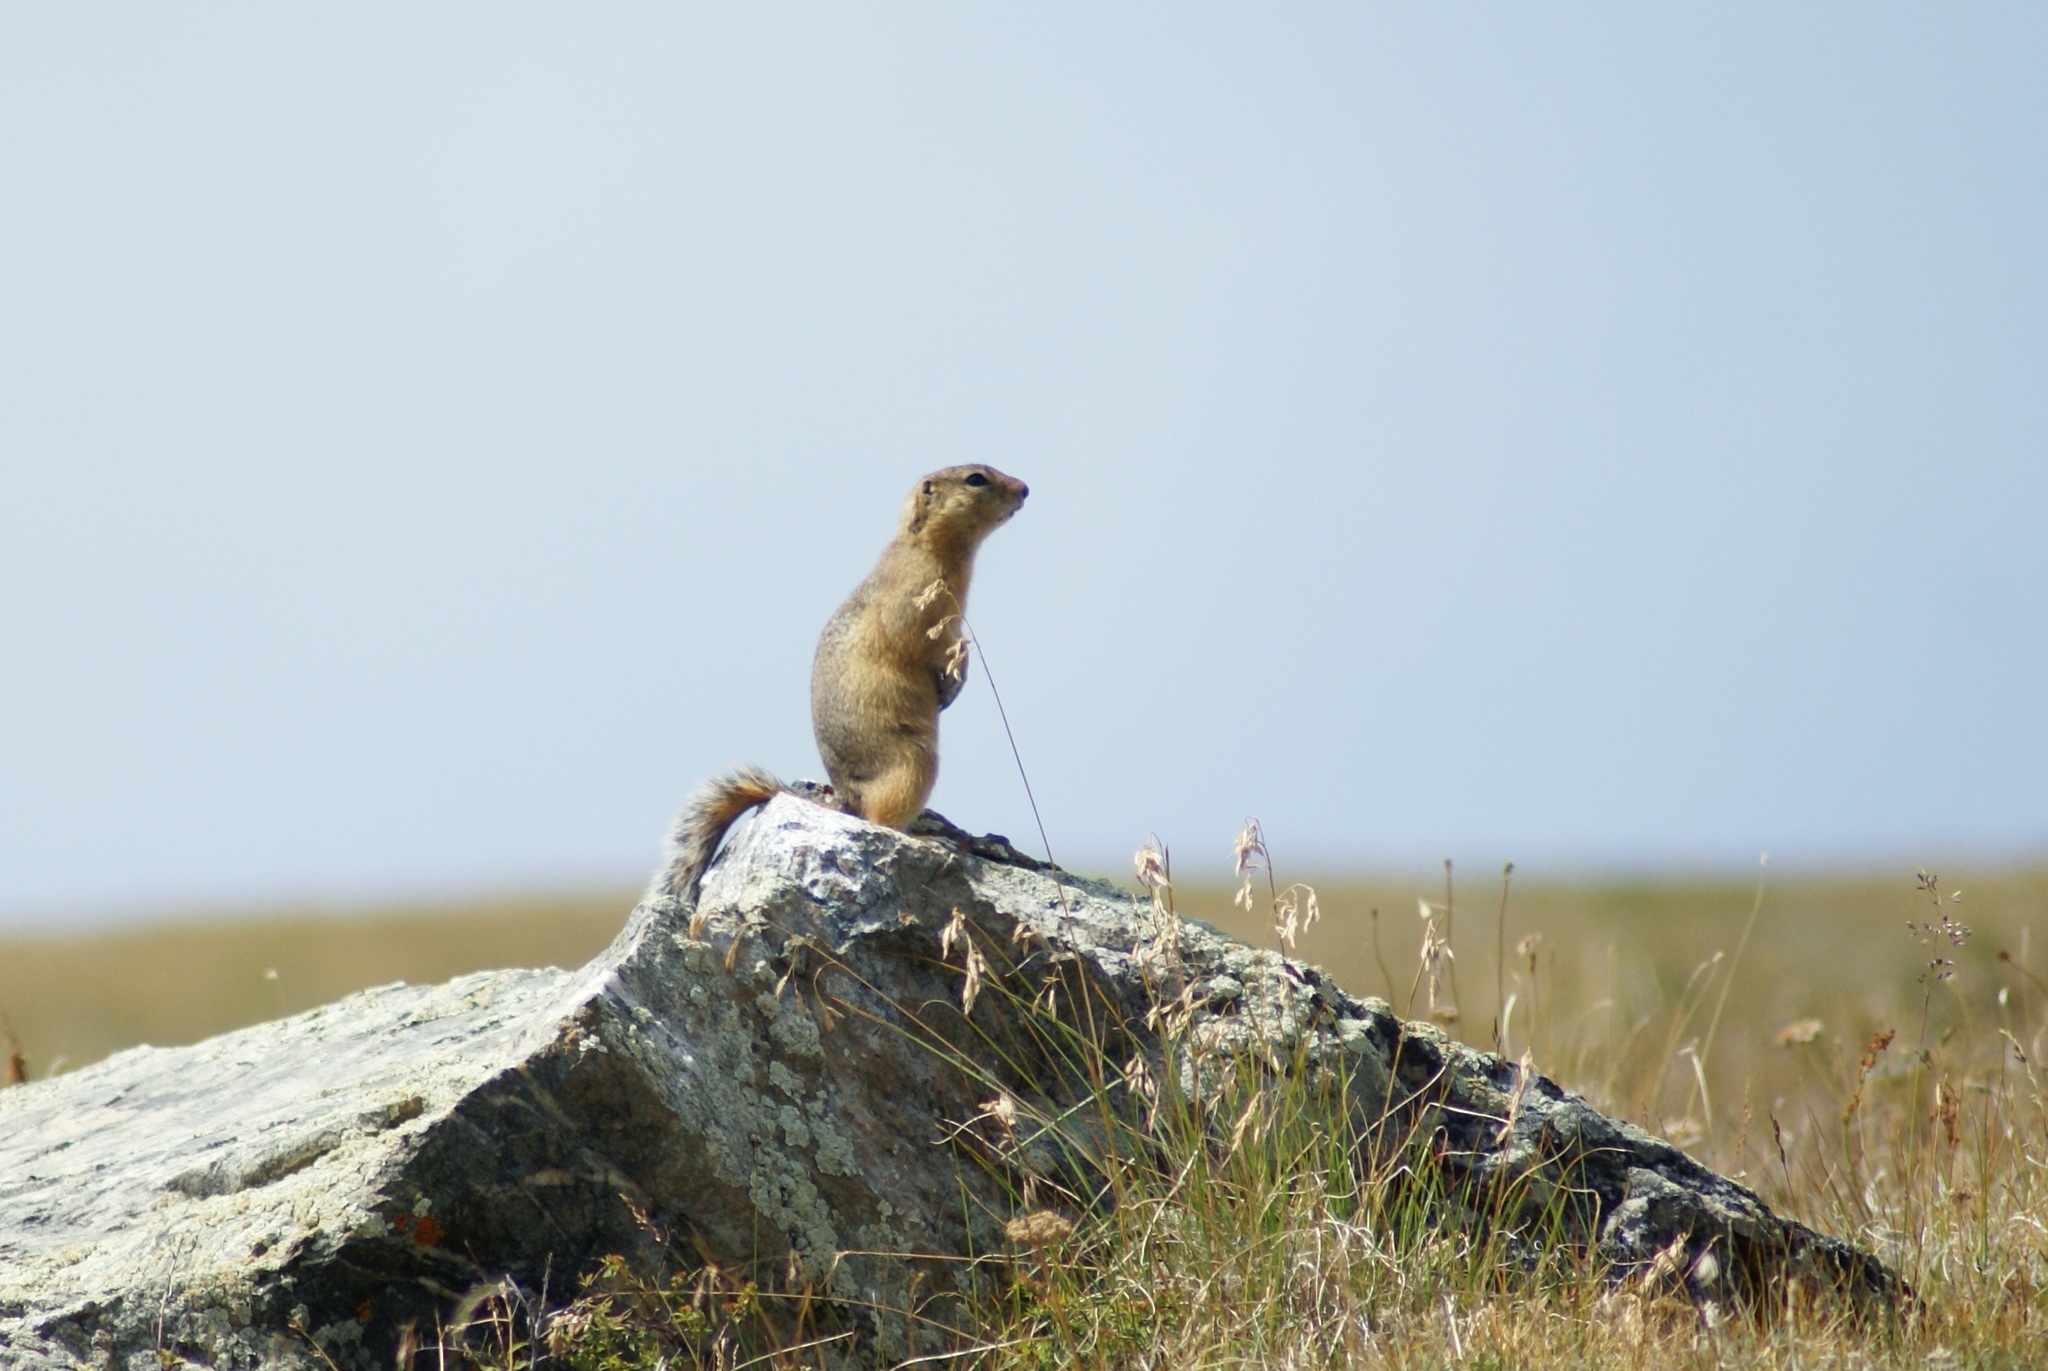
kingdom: Animalia
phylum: Chordata
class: Mammalia
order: Rodentia
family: Sciuridae
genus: Urocitellus
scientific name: Urocitellus undulatus
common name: Long-tailed ground squirrel
